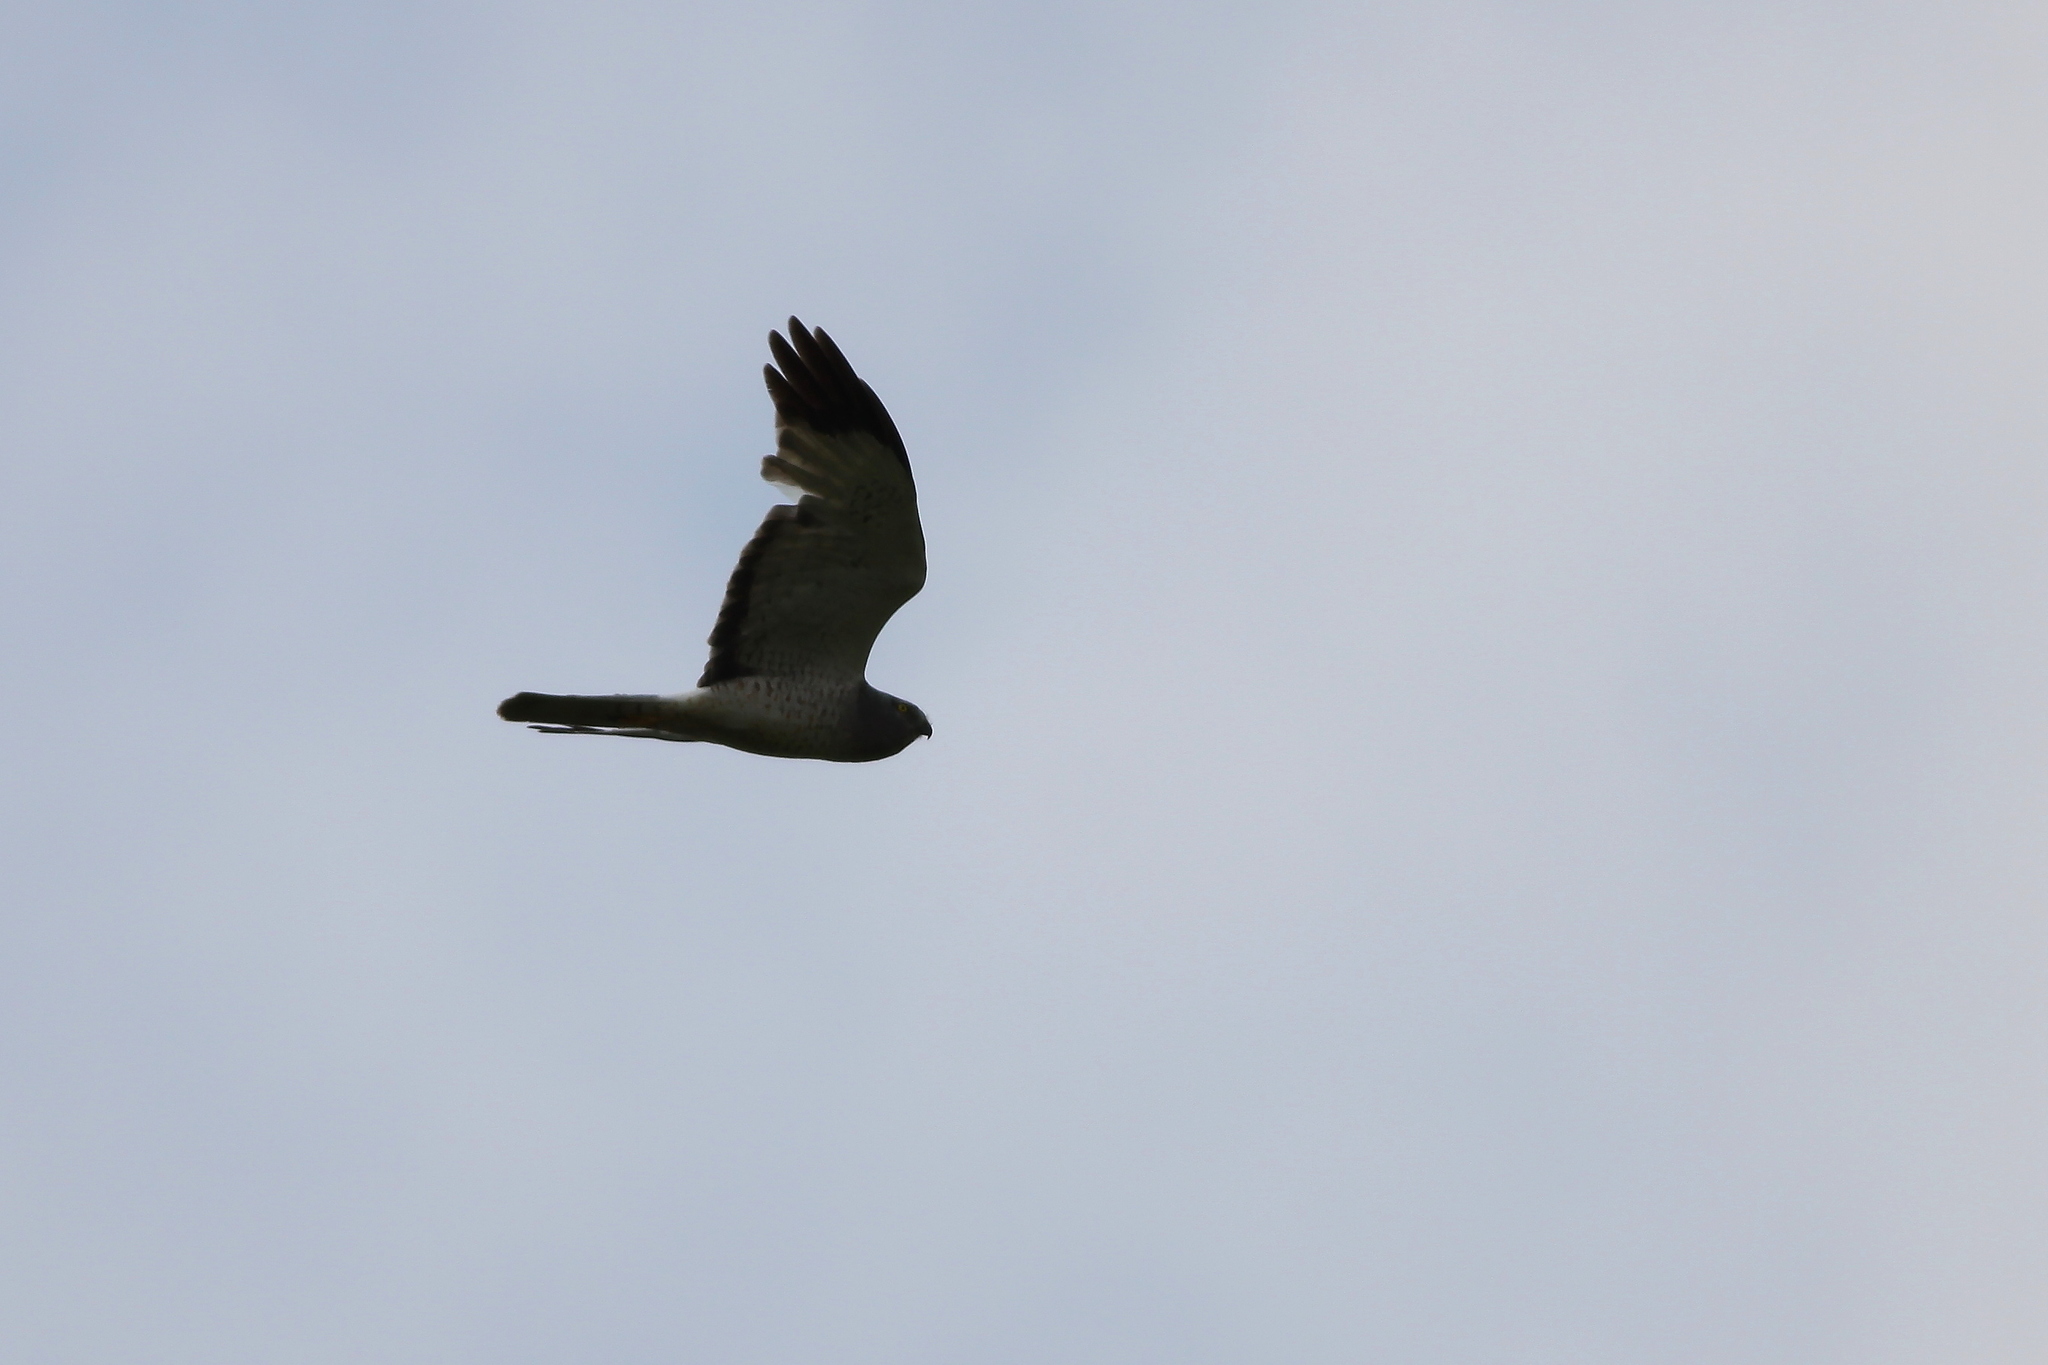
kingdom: Animalia
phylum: Chordata
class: Aves
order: Accipitriformes
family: Accipitridae
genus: Circus
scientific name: Circus cyaneus
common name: Hen harrier
